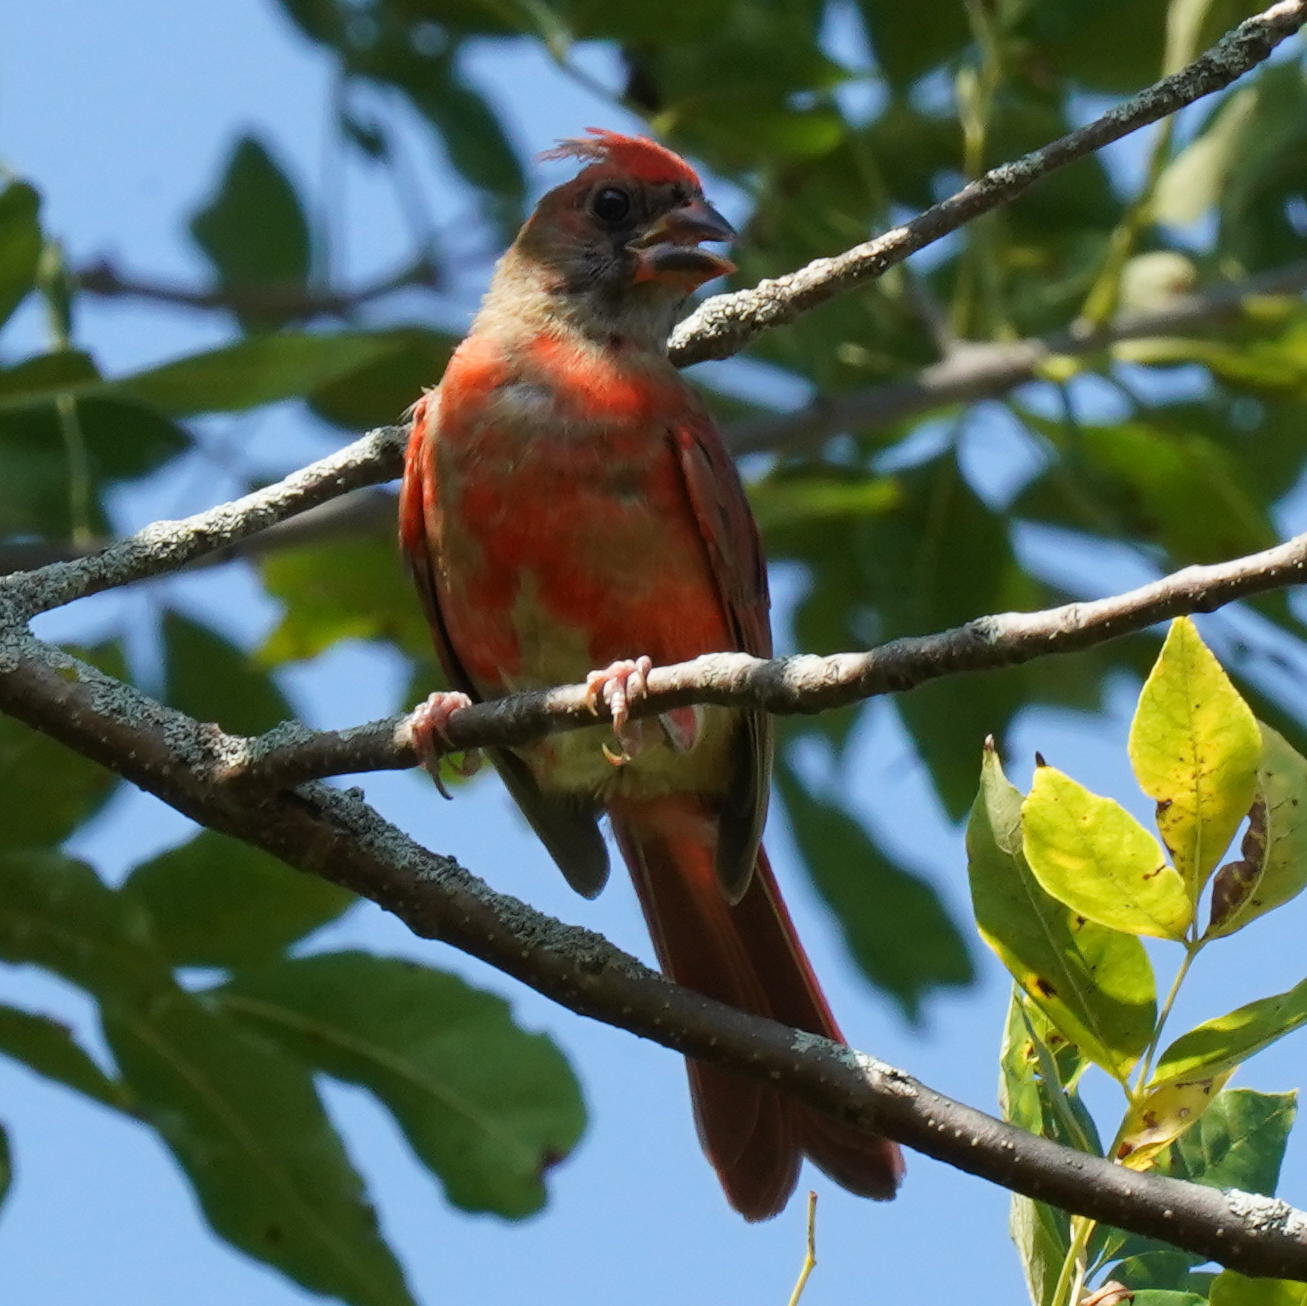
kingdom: Animalia
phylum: Chordata
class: Aves
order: Passeriformes
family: Cardinalidae
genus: Cardinalis
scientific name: Cardinalis cardinalis
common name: Northern cardinal
